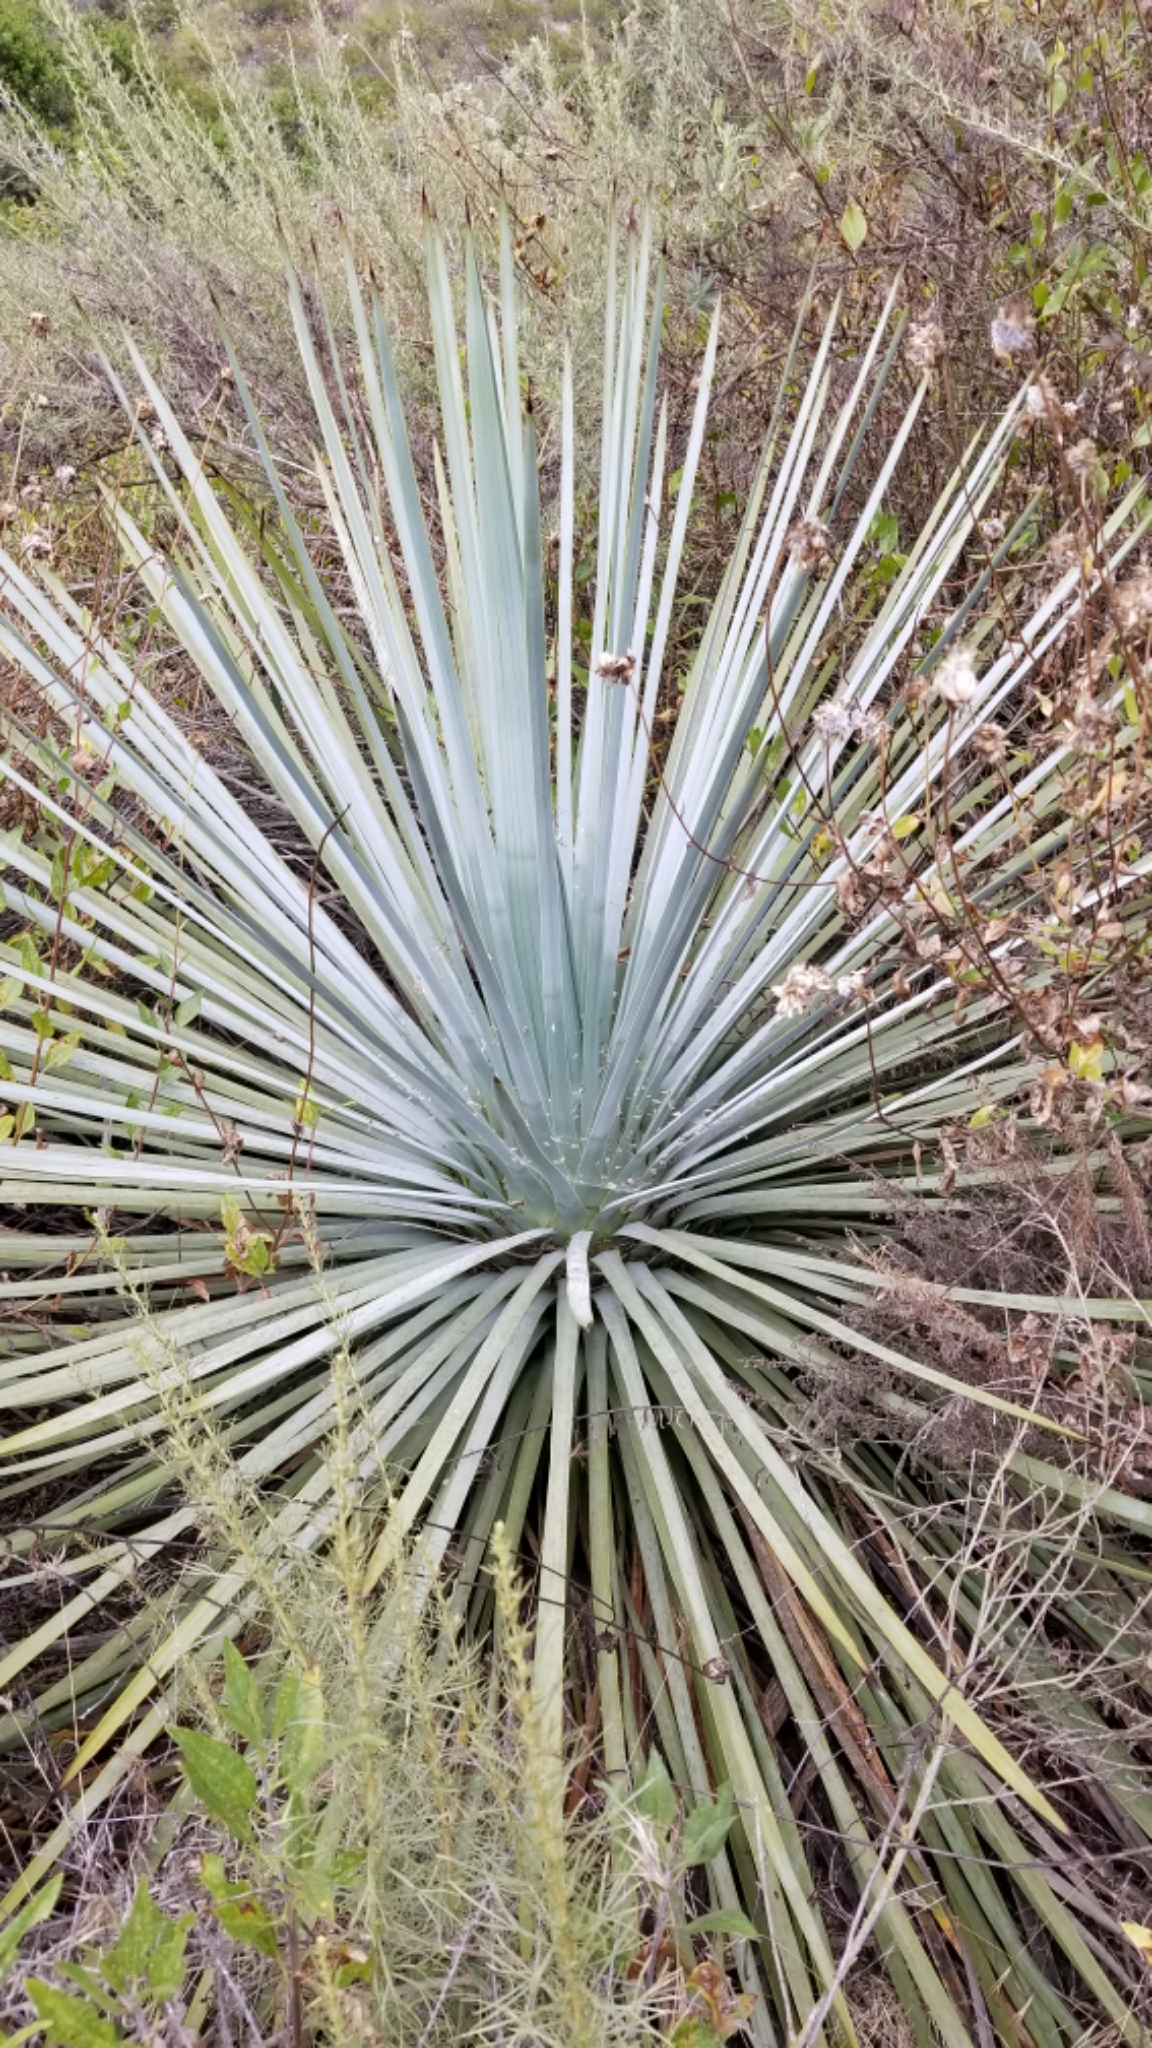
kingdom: Plantae
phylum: Tracheophyta
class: Liliopsida
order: Asparagales
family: Asparagaceae
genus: Hesperoyucca
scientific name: Hesperoyucca whipplei
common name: Our lord's-candle
